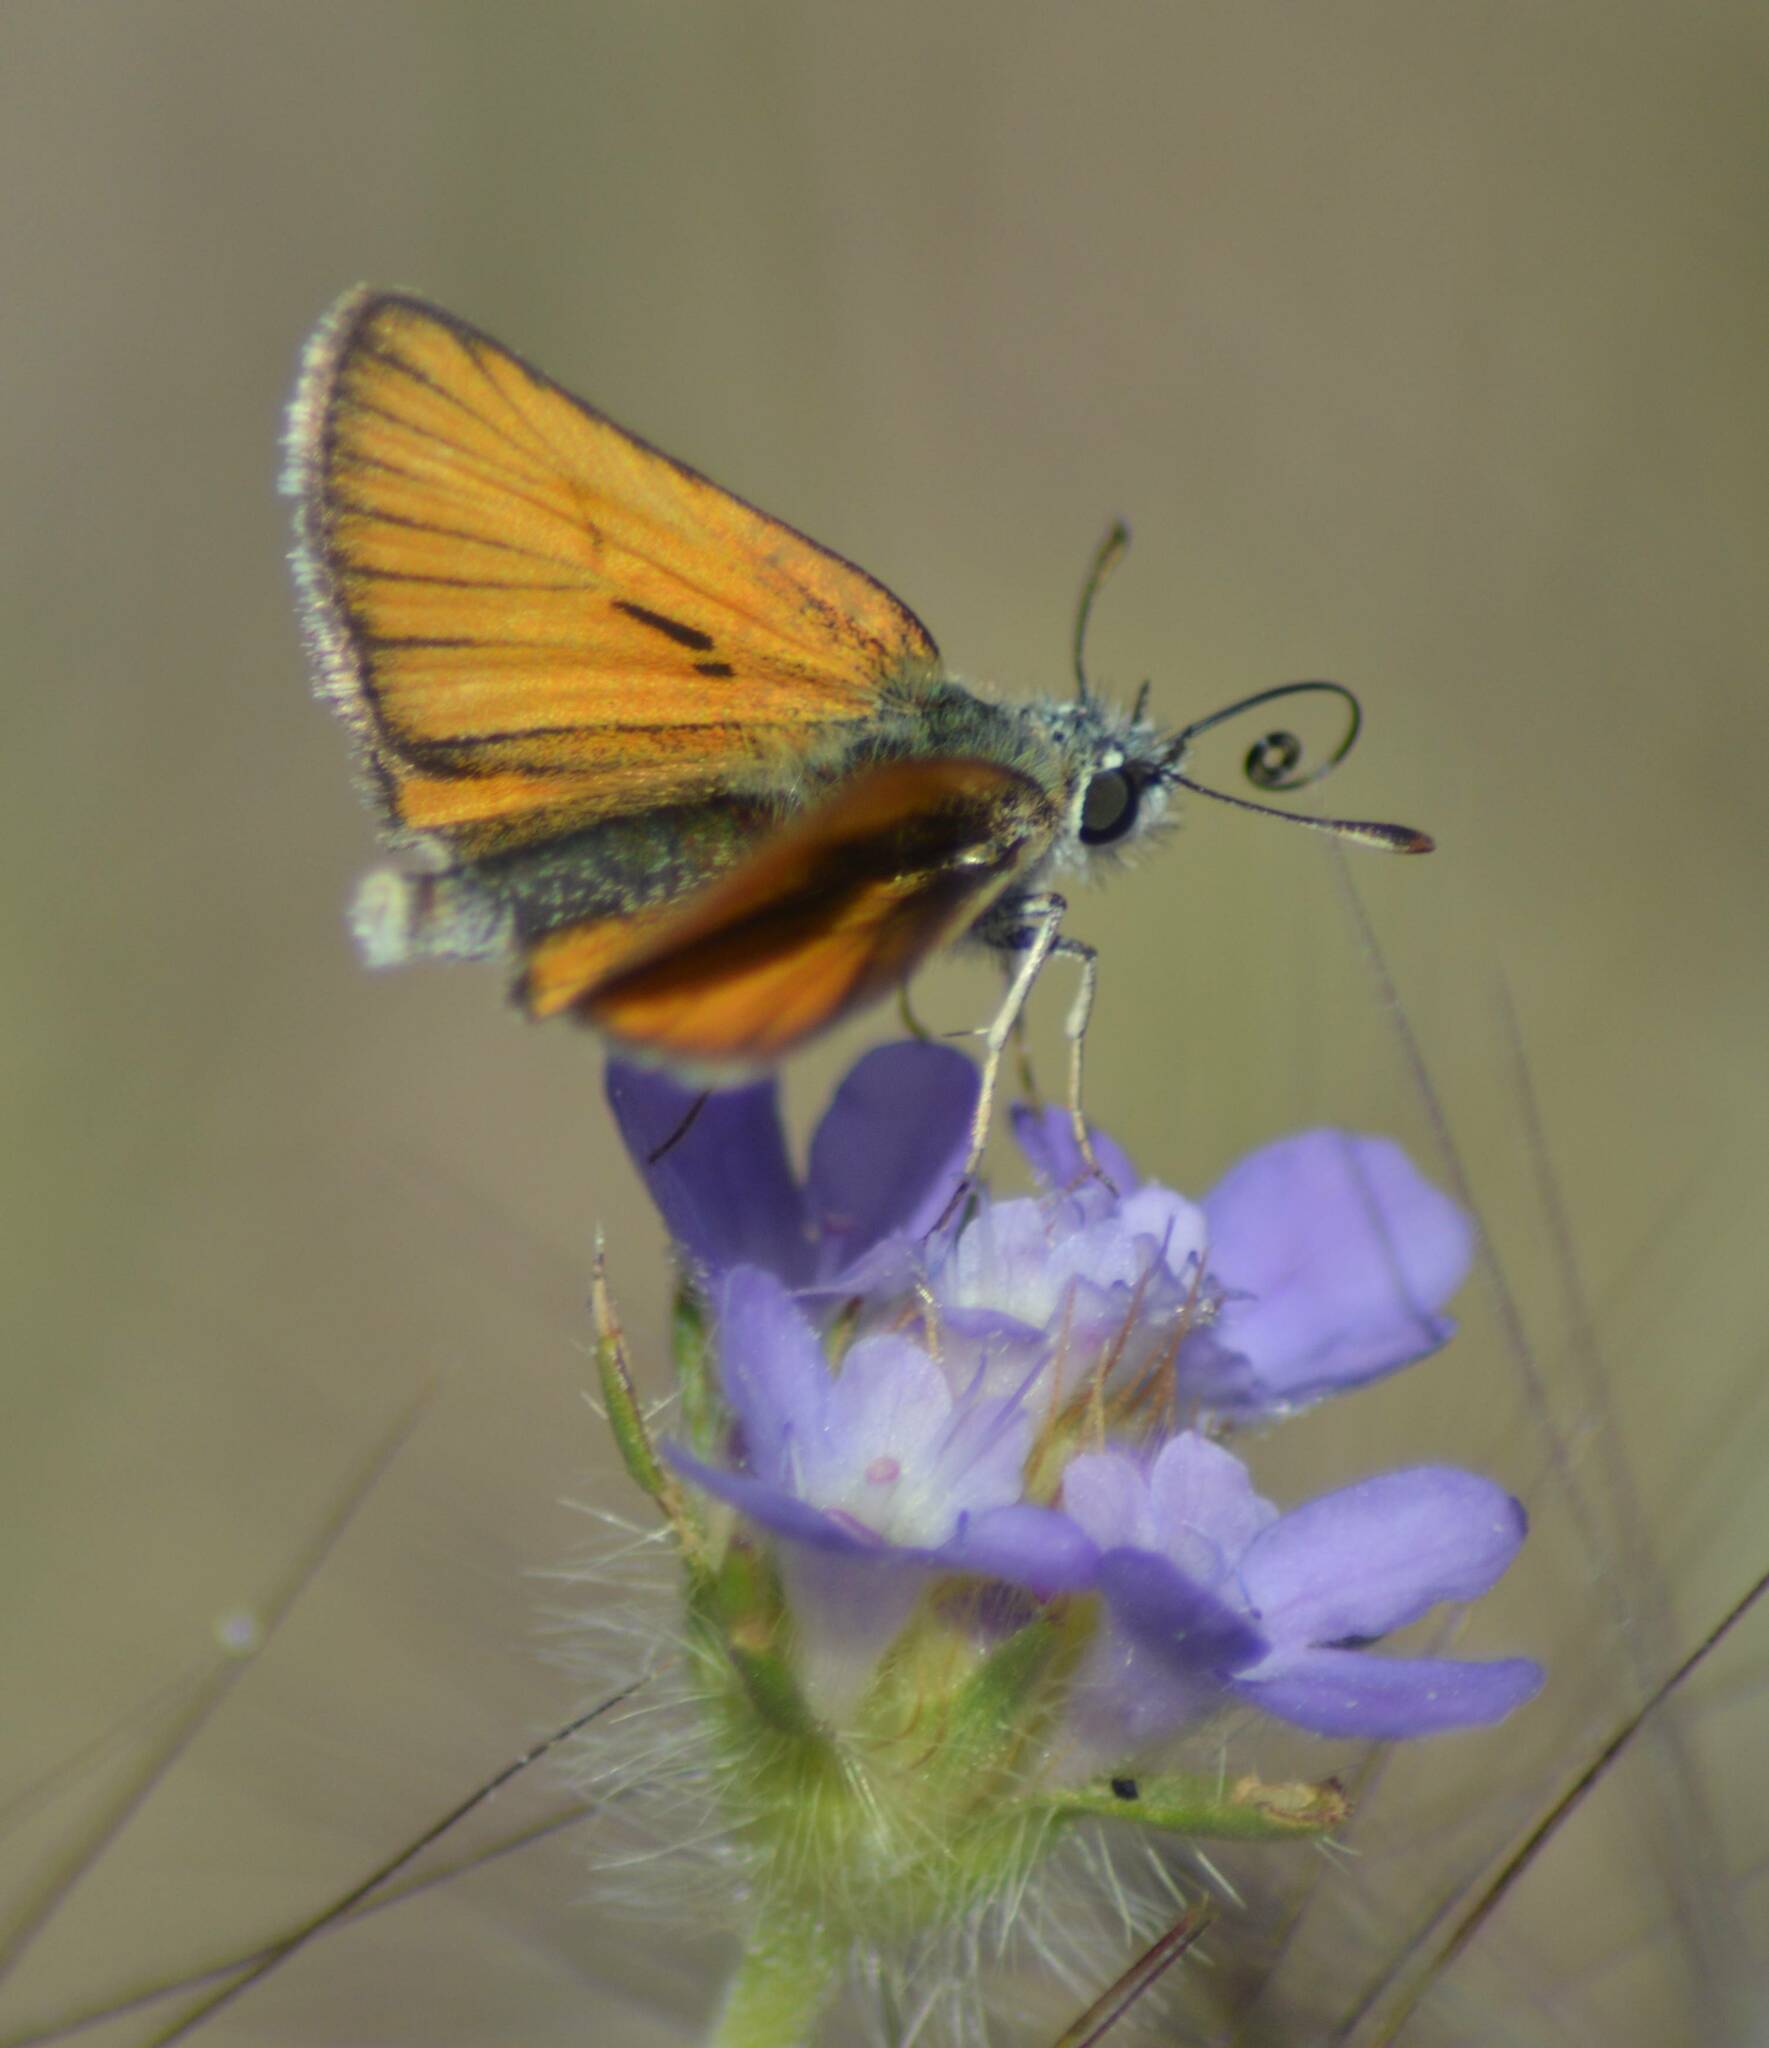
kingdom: Animalia
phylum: Arthropoda
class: Insecta
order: Lepidoptera
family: Hesperiidae
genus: Thymelicus
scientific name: Thymelicus lineola
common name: Essex skipper
